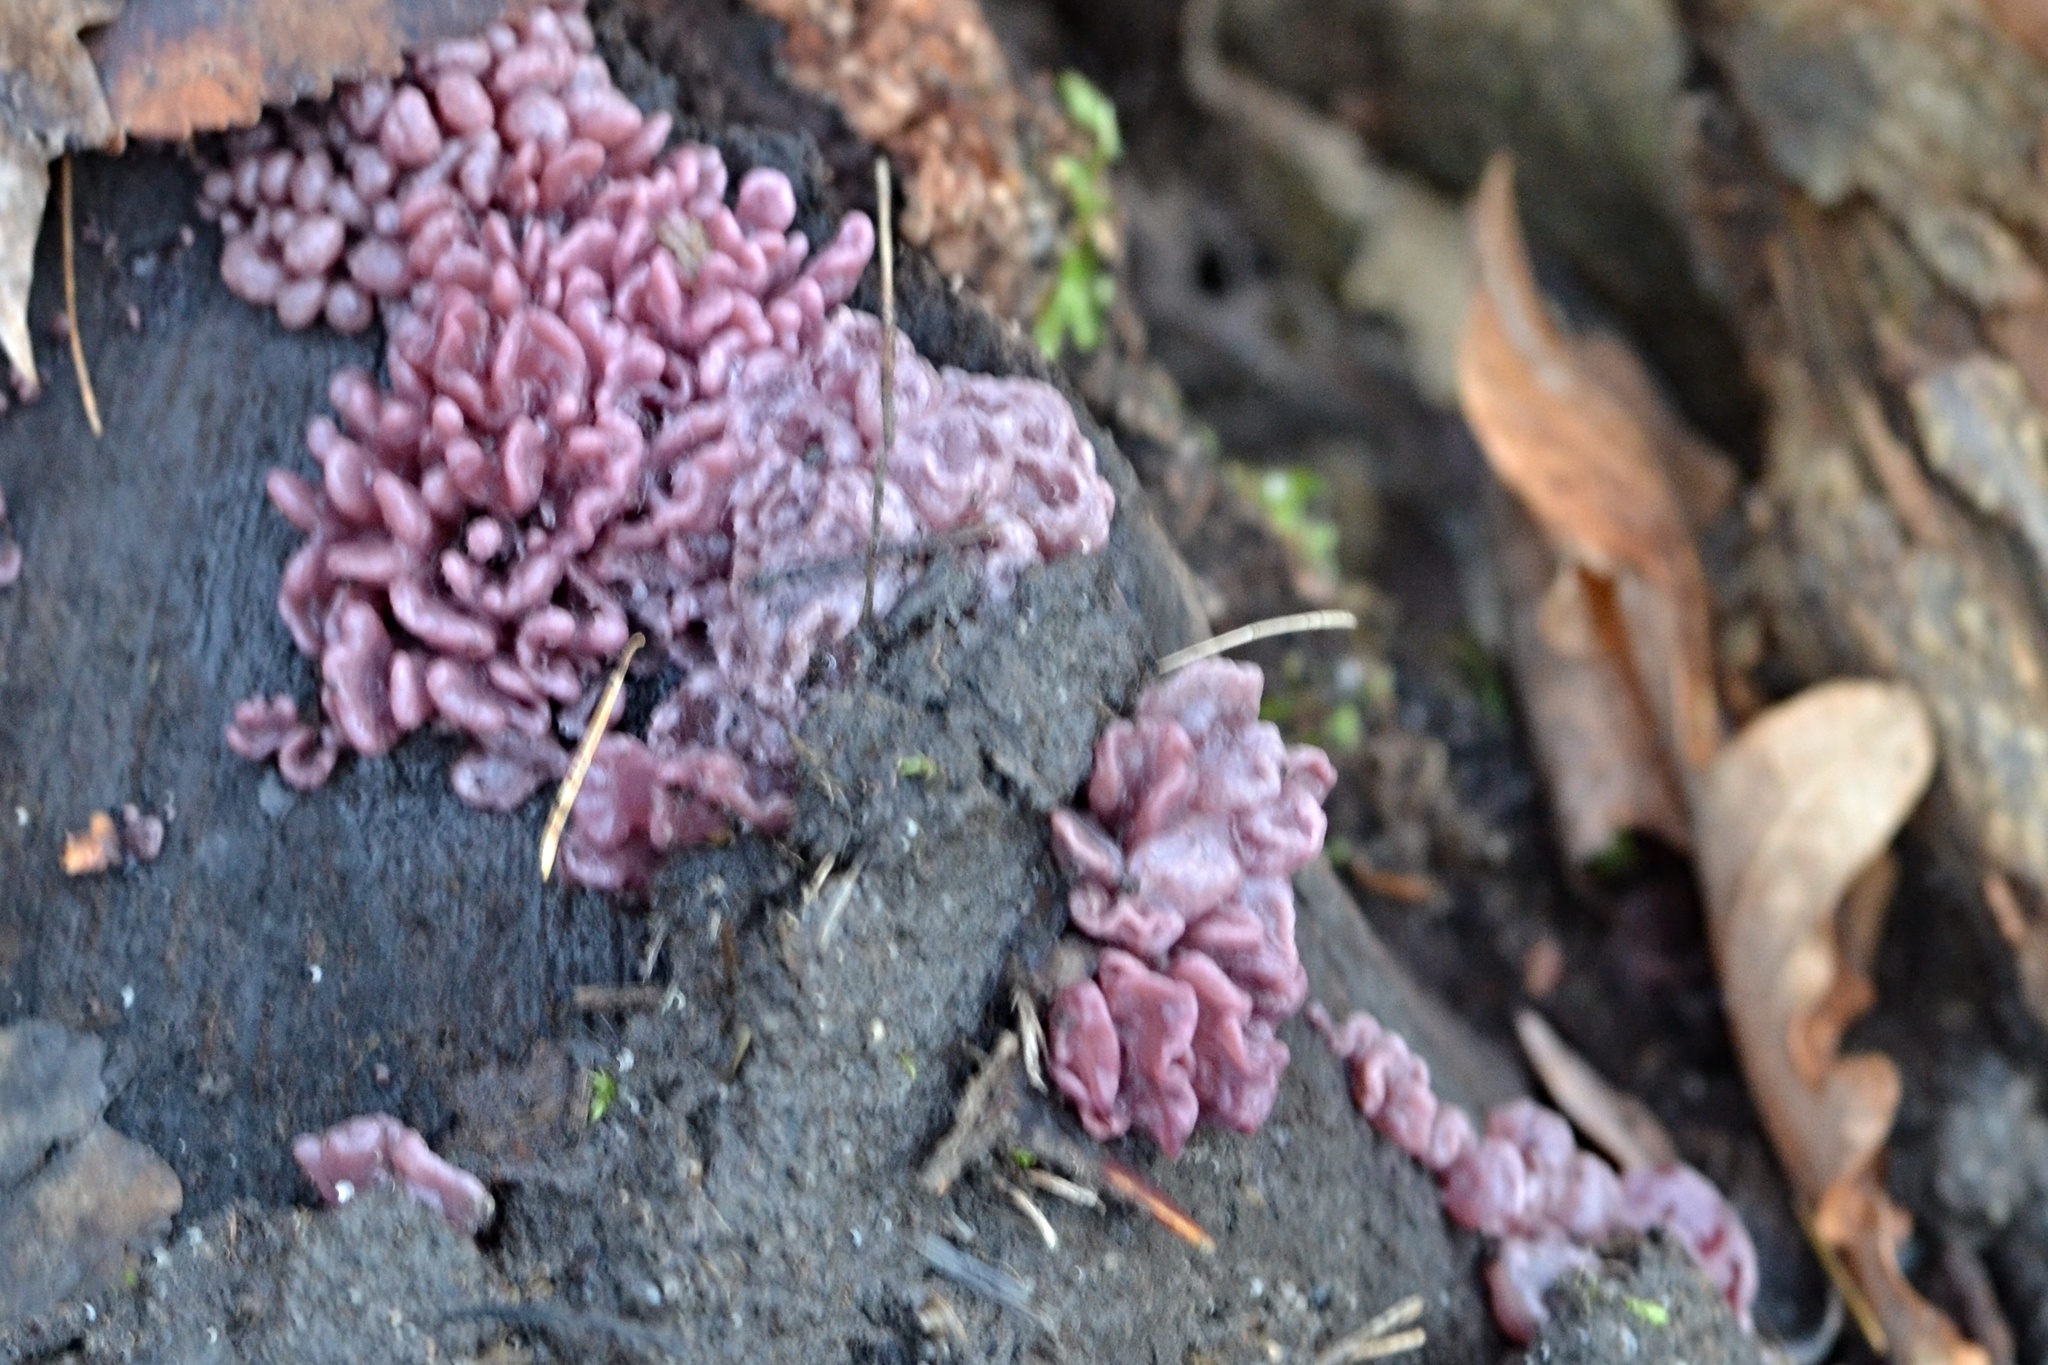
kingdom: Fungi
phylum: Ascomycota
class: Leotiomycetes
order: Helotiales
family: Gelatinodiscaceae
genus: Ascocoryne
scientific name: Ascocoryne sarcoides
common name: Purple jellydisc
